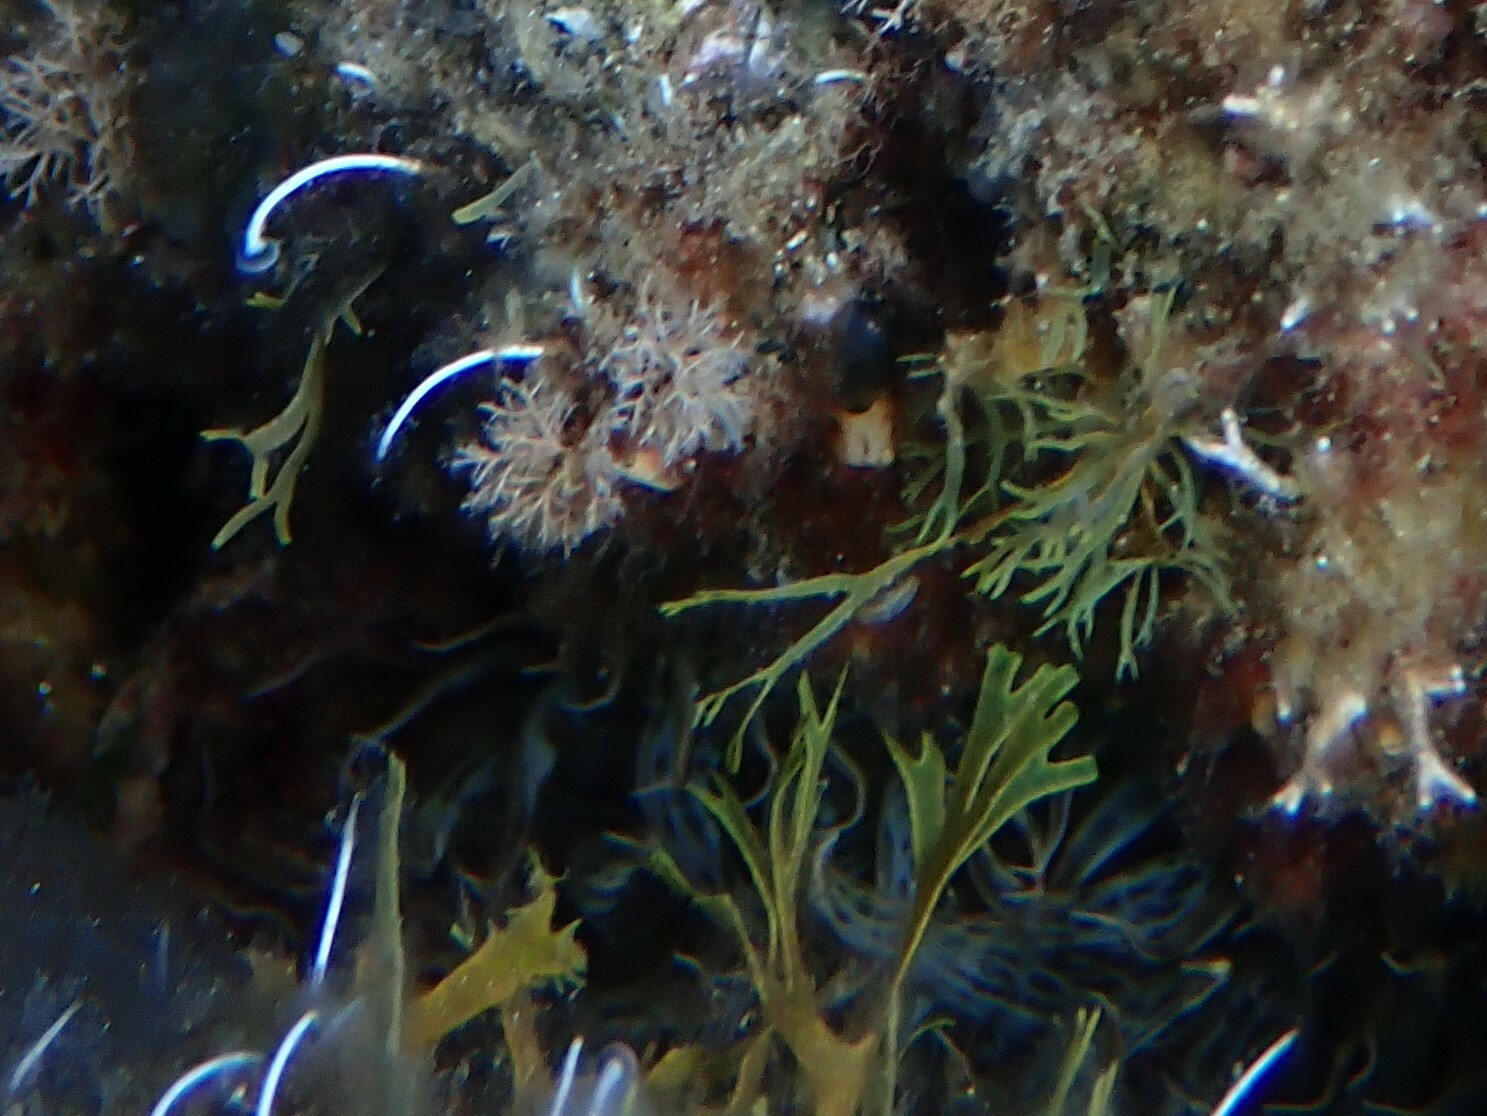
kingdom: Animalia
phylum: Cnidaria
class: Anthozoa
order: Actiniaria
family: Aiptasiidae
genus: Aiptasia
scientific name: Aiptasia mutabilis
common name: Trumpet anemone
